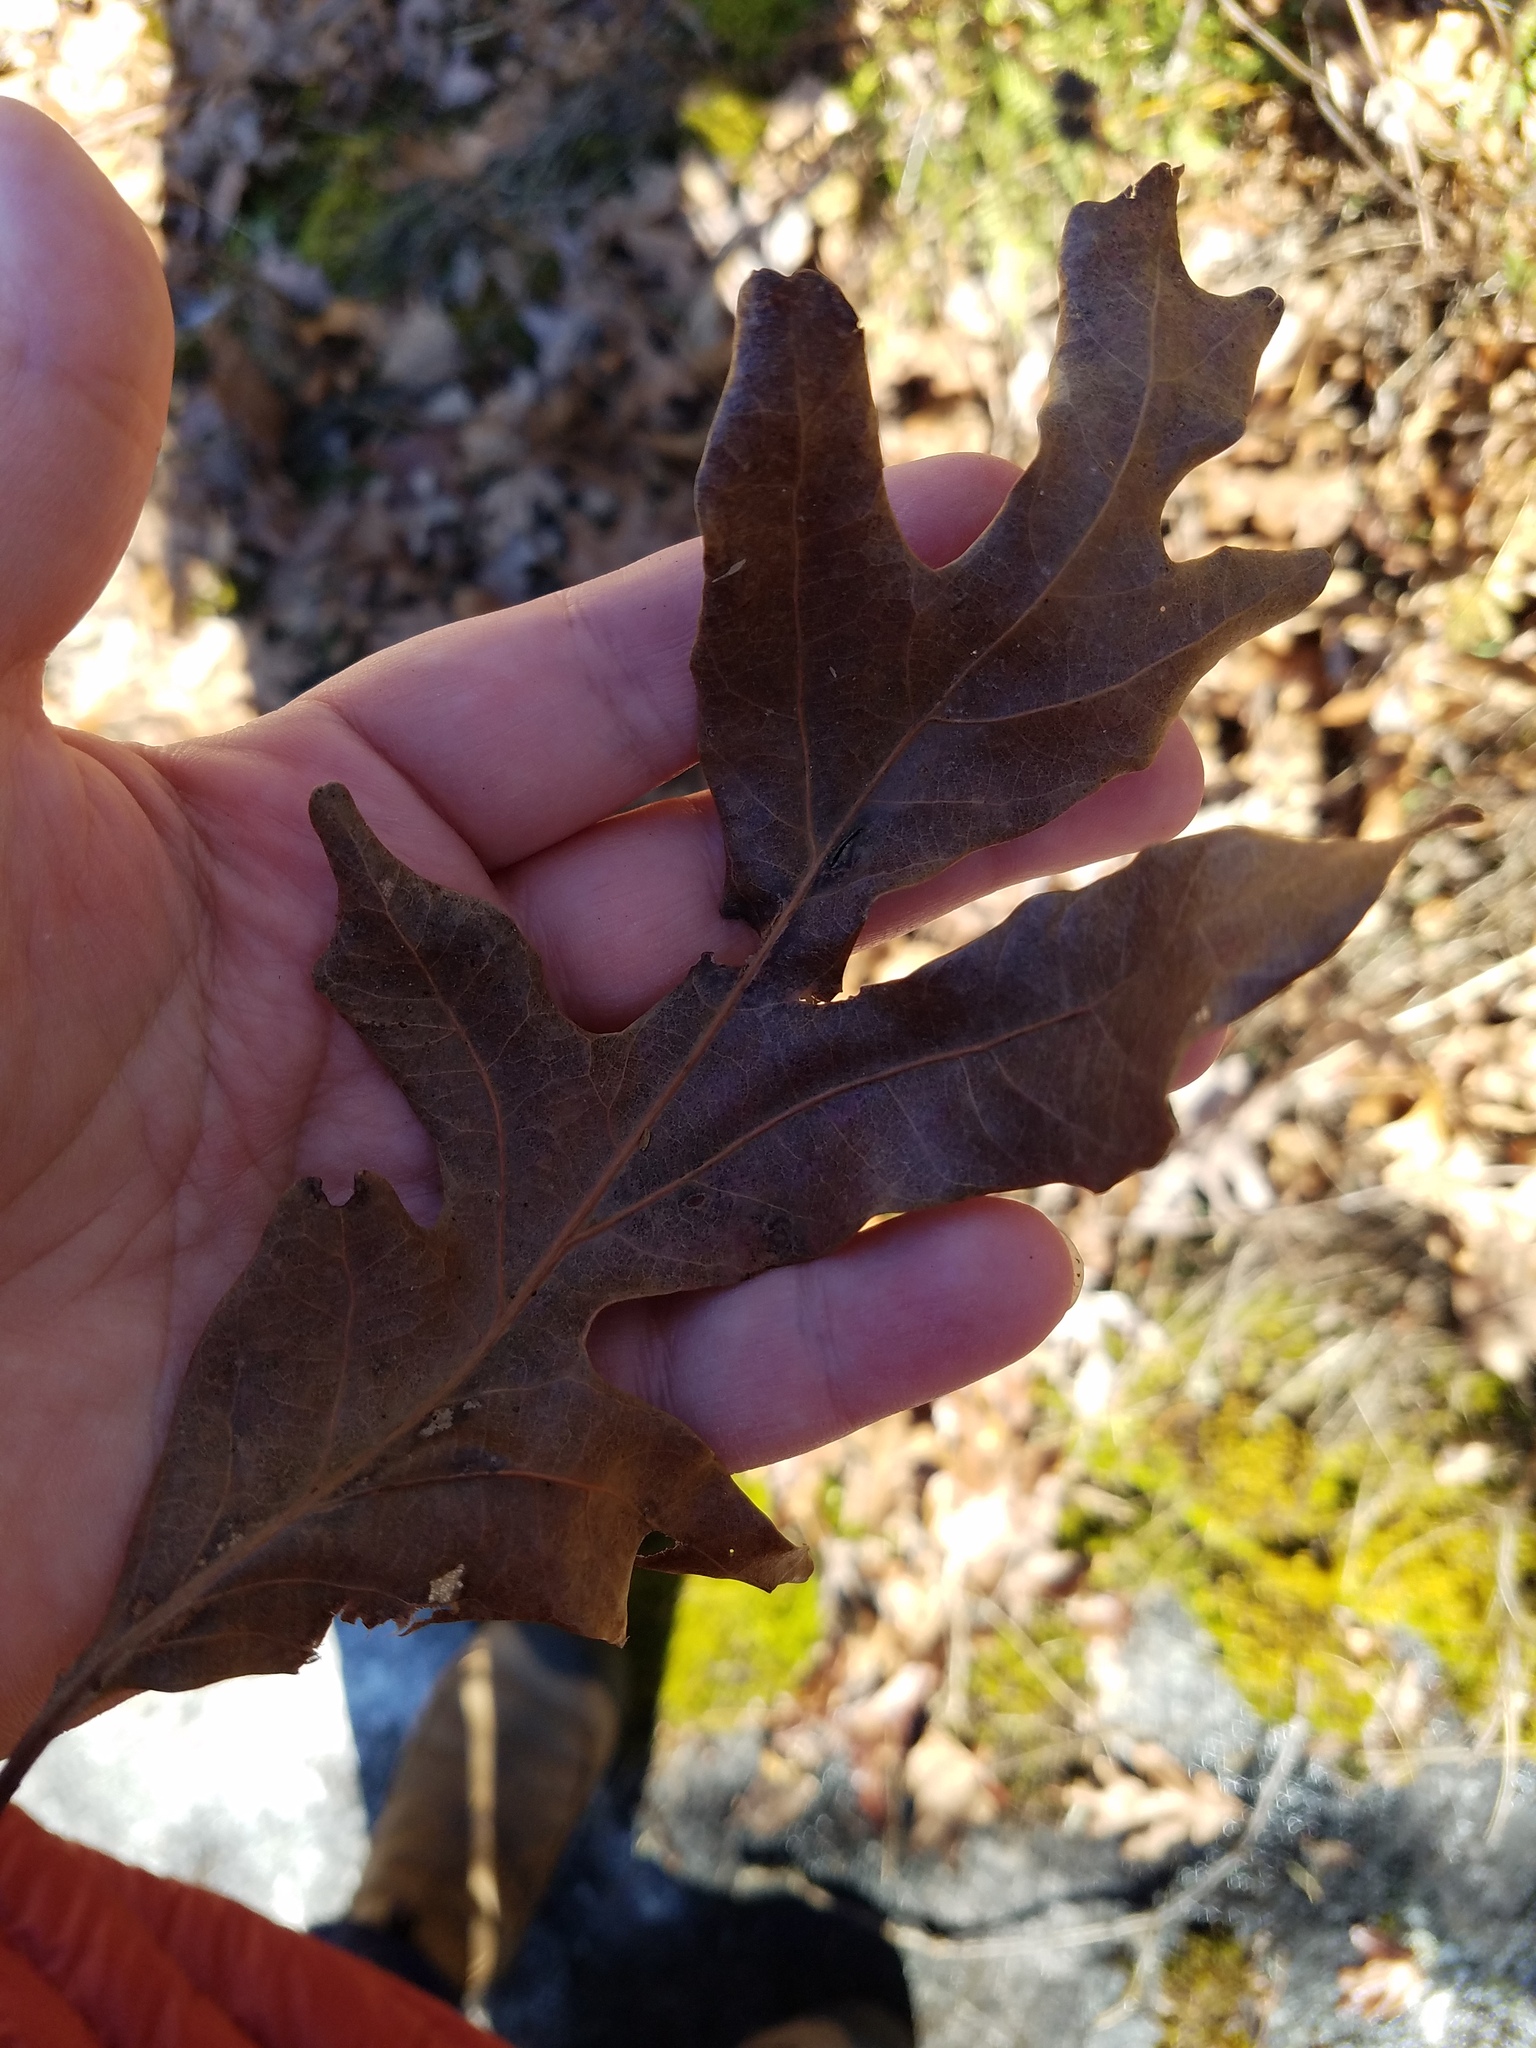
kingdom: Plantae
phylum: Tracheophyta
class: Magnoliopsida
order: Fagales
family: Fagaceae
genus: Quercus
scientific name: Quercus alba
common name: White oak
